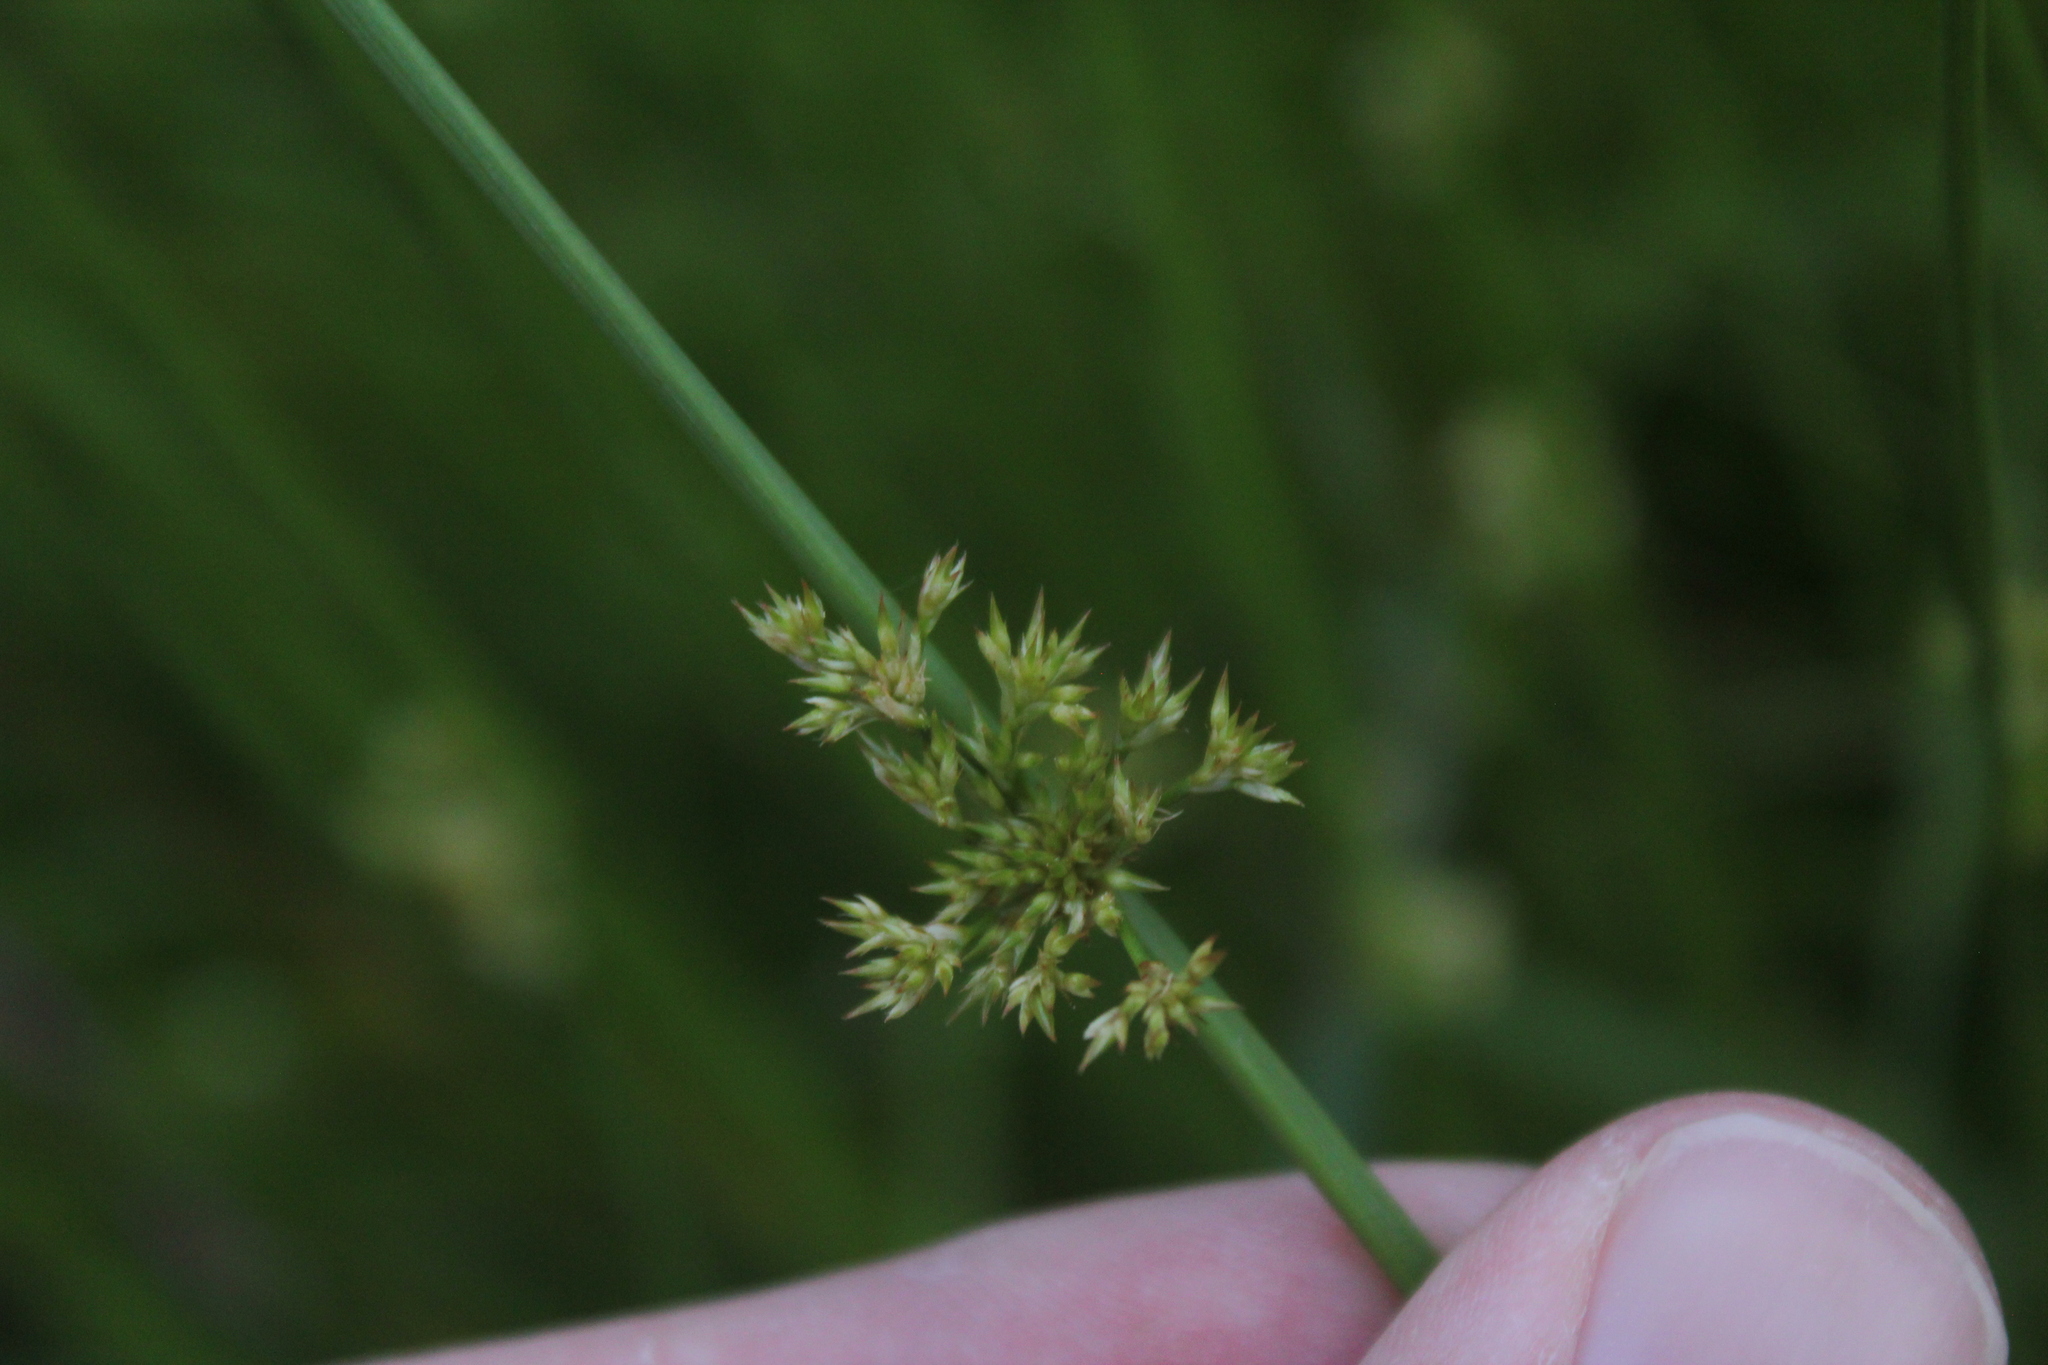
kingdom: Plantae
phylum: Tracheophyta
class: Liliopsida
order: Poales
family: Juncaceae
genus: Juncus
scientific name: Juncus effusus
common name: Soft rush
